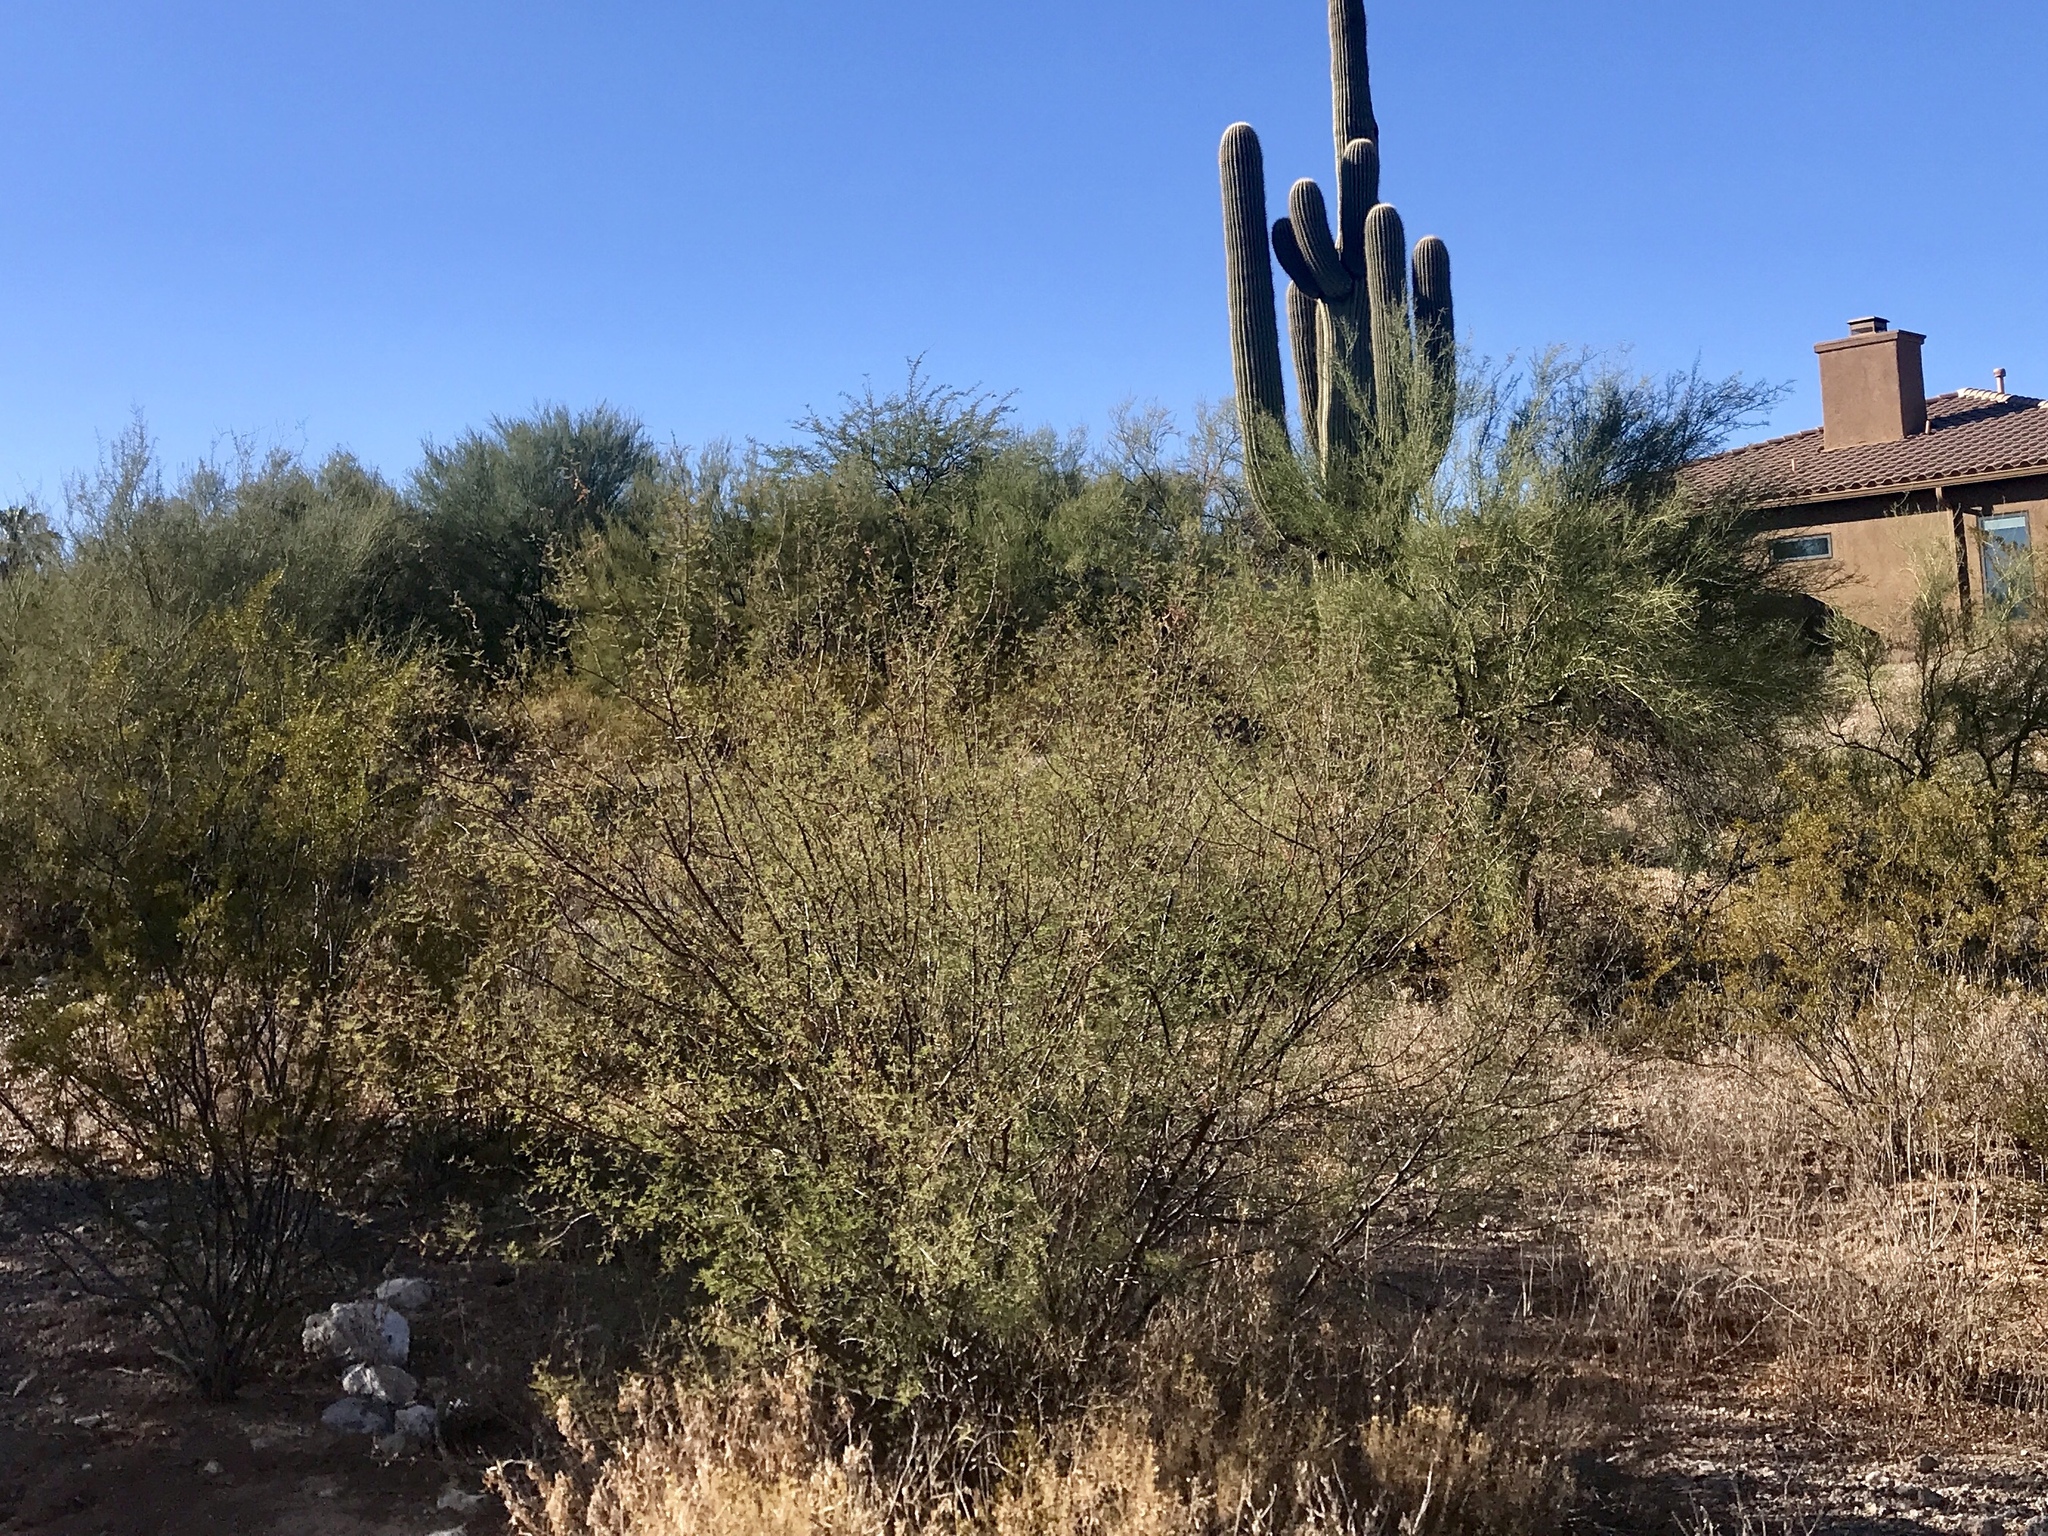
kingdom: Plantae
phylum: Tracheophyta
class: Magnoliopsida
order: Zygophyllales
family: Zygophyllaceae
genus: Larrea
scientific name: Larrea tridentata
